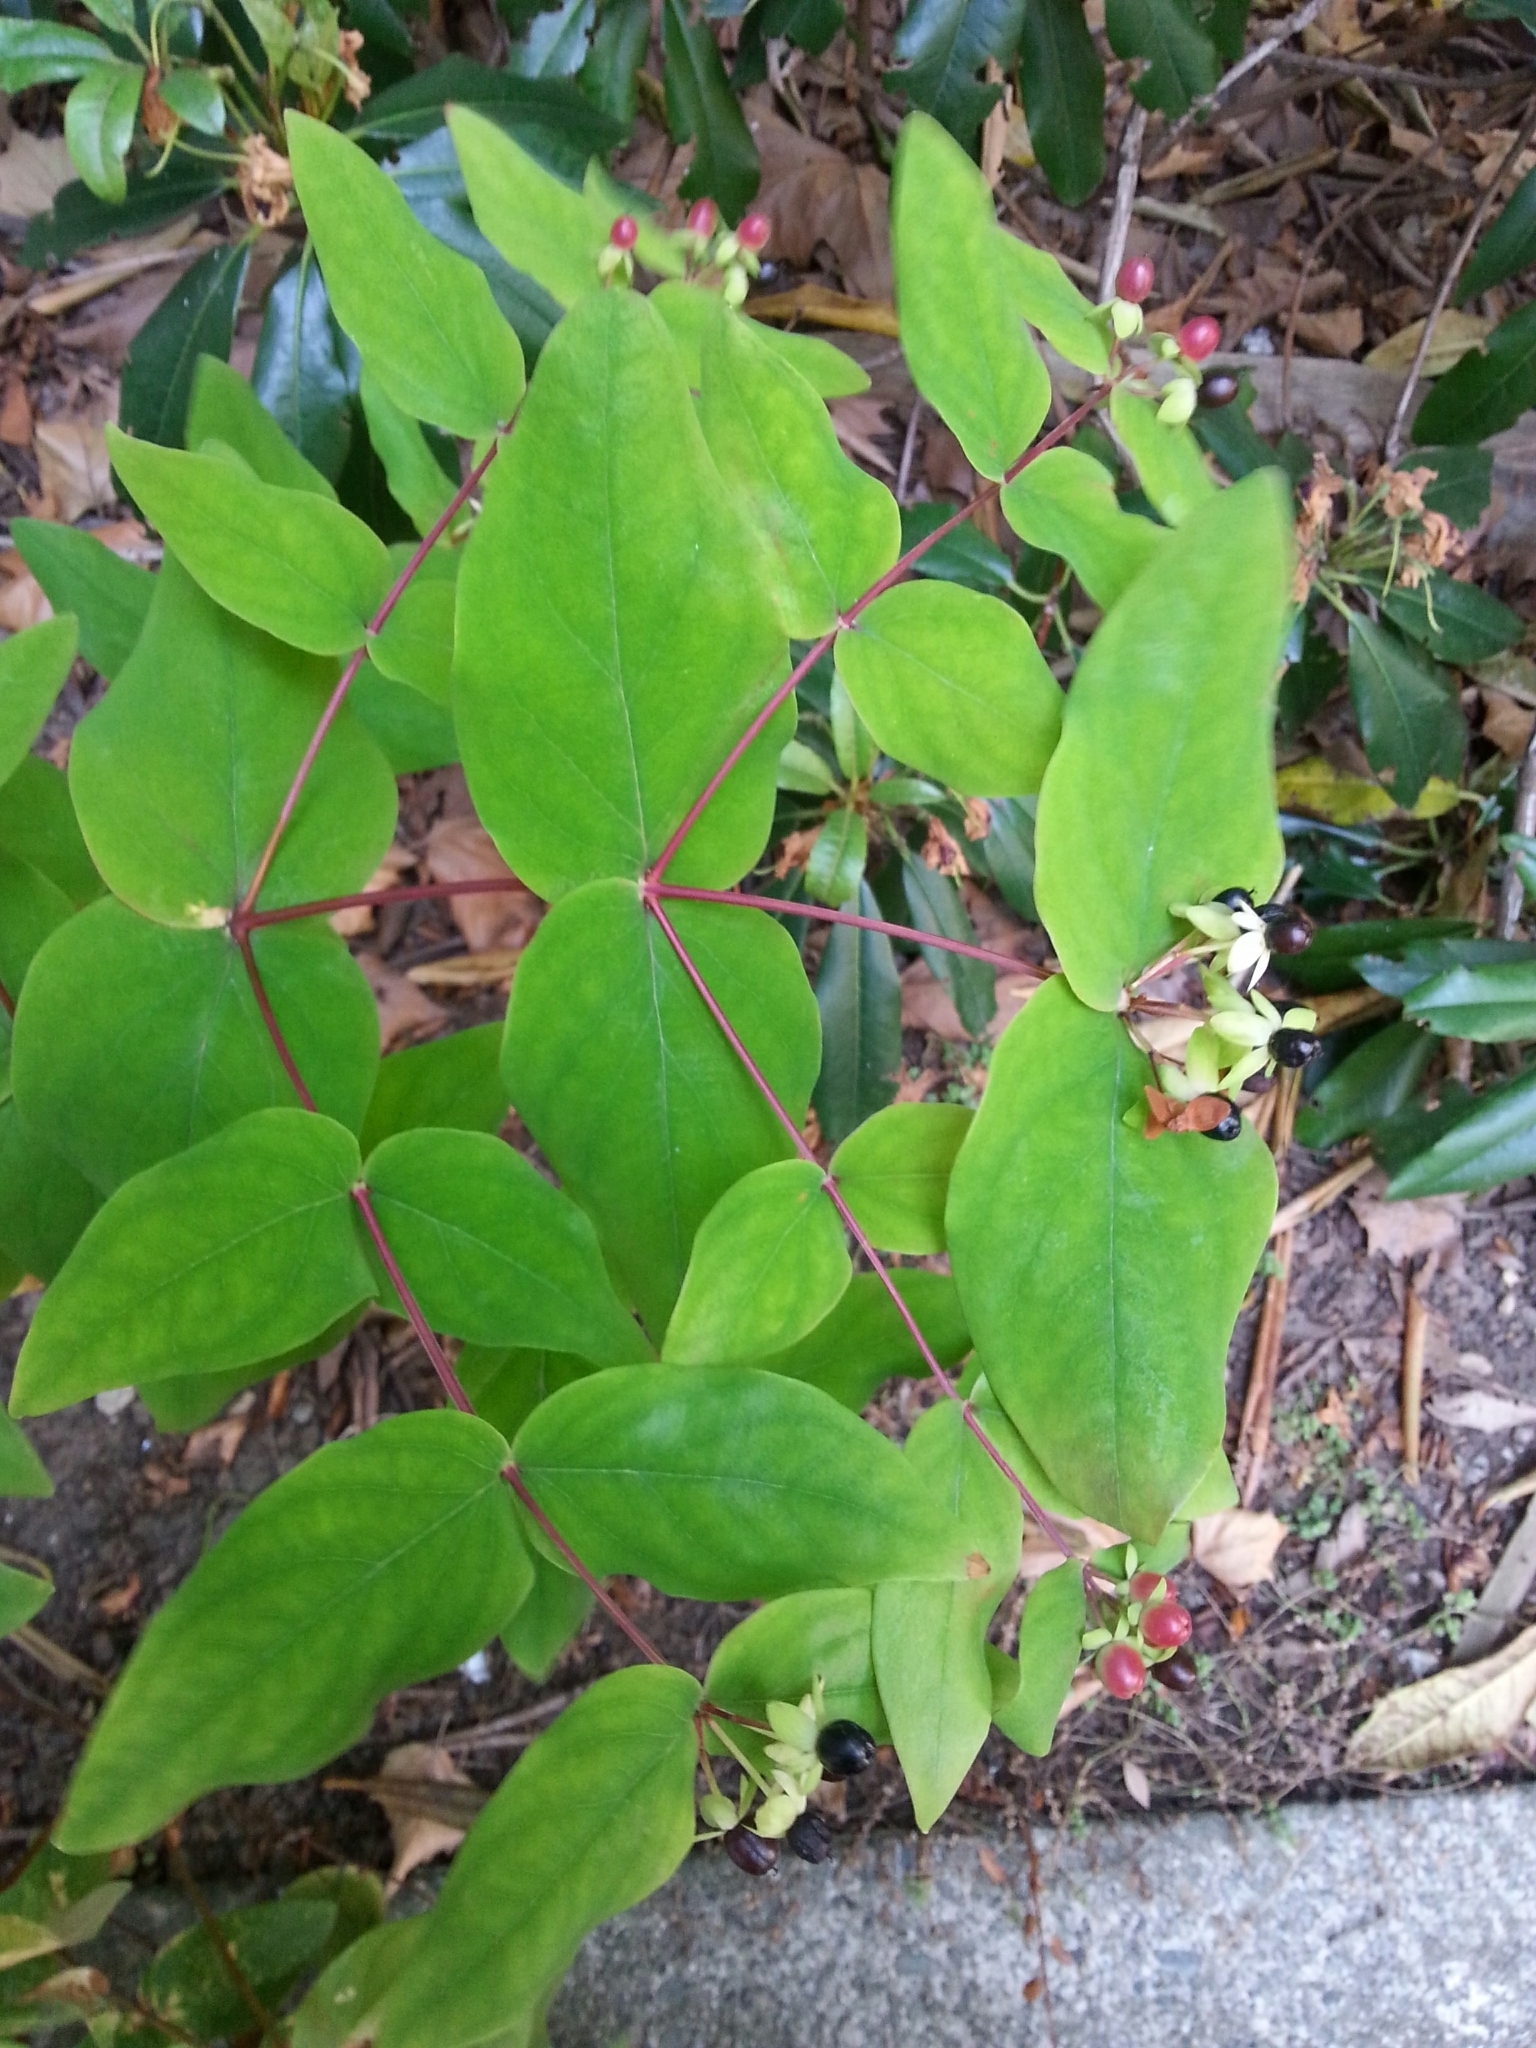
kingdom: Plantae
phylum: Tracheophyta
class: Magnoliopsida
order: Malpighiales
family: Hypericaceae
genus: Hypericum
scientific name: Hypericum androsaemum
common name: Sweet-amber
